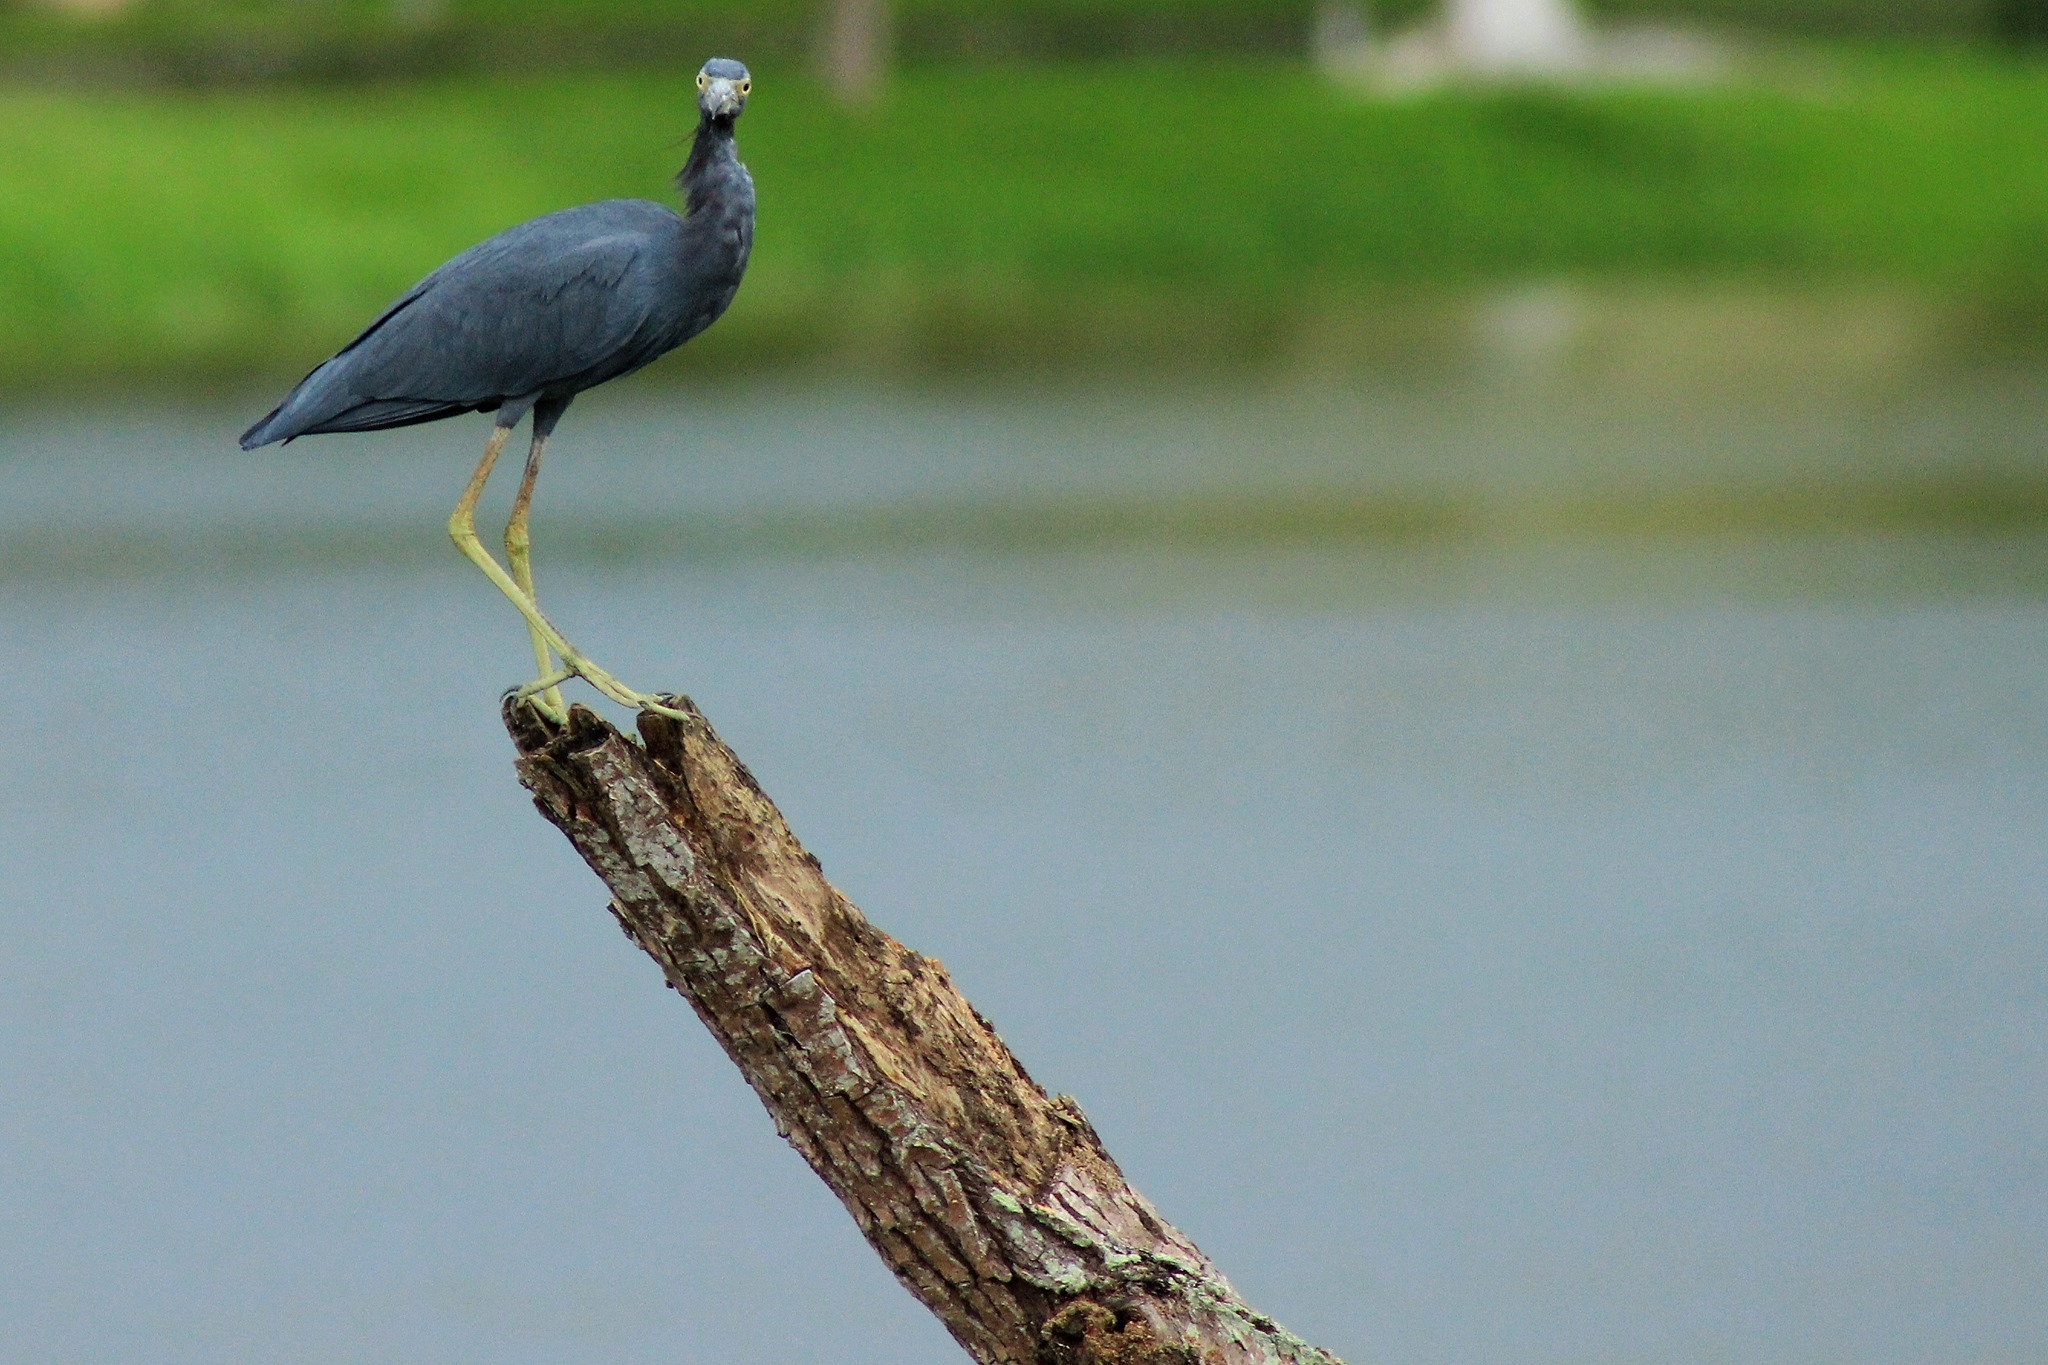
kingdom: Animalia
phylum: Chordata
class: Aves
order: Pelecaniformes
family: Ardeidae
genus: Egretta
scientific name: Egretta caerulea
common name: Little blue heron
